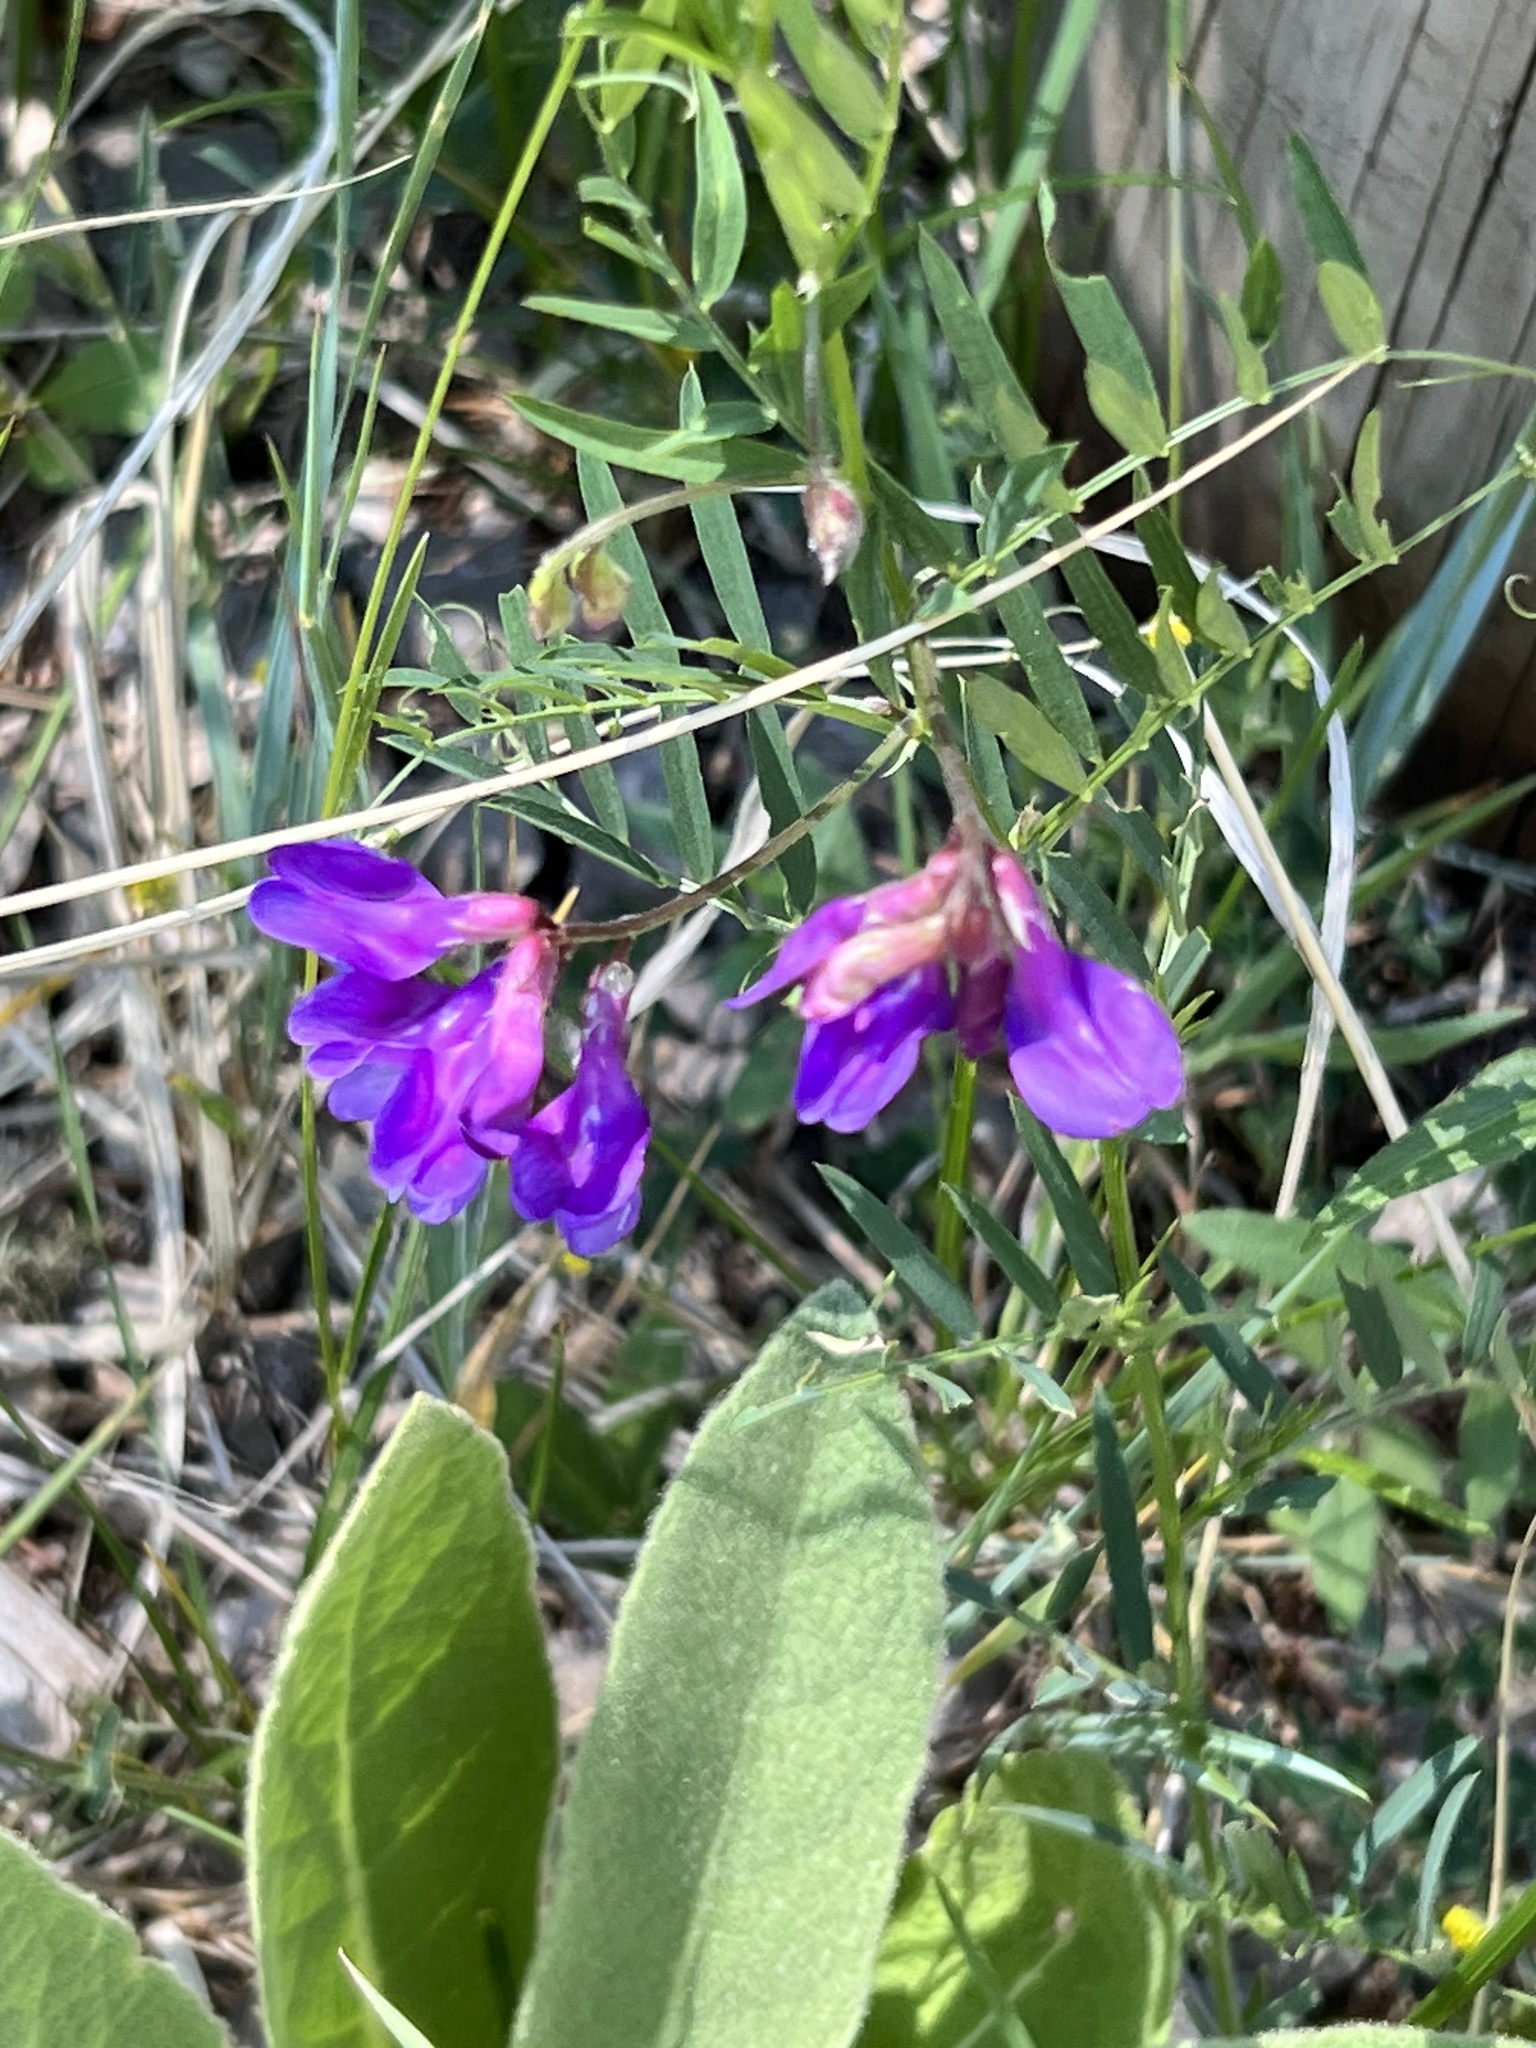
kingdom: Plantae
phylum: Tracheophyta
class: Magnoliopsida
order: Fabales
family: Fabaceae
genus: Vicia
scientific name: Vicia americana
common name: American vetch
